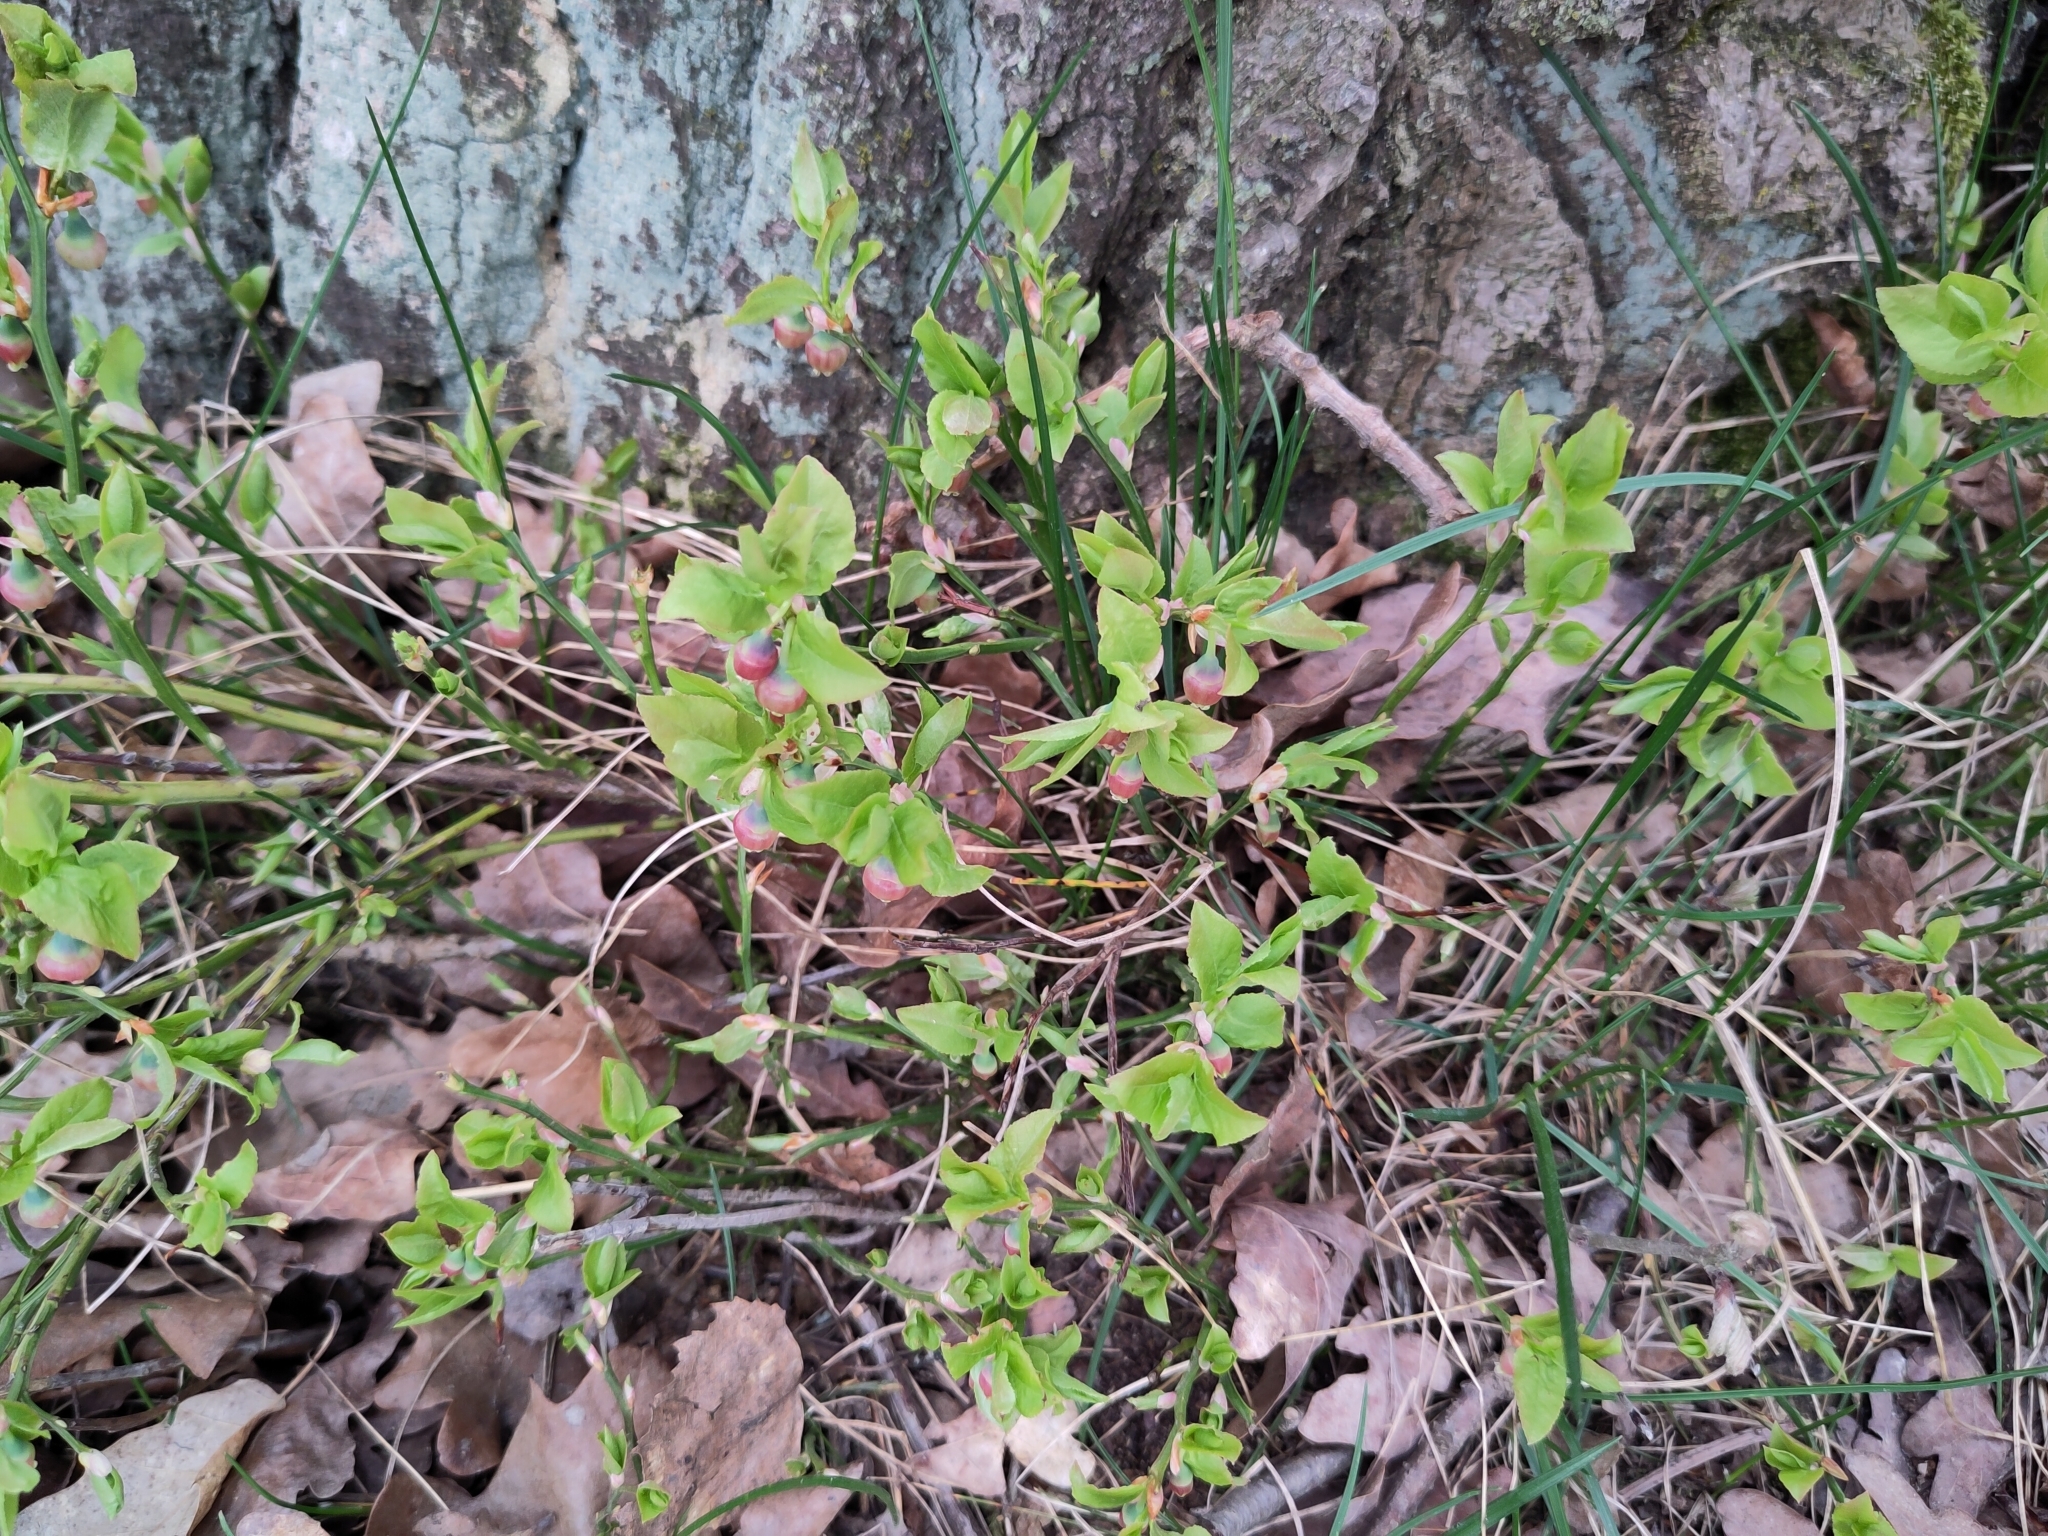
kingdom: Plantae
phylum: Tracheophyta
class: Magnoliopsida
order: Ericales
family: Ericaceae
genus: Vaccinium
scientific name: Vaccinium myrtillus
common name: Bilberry
